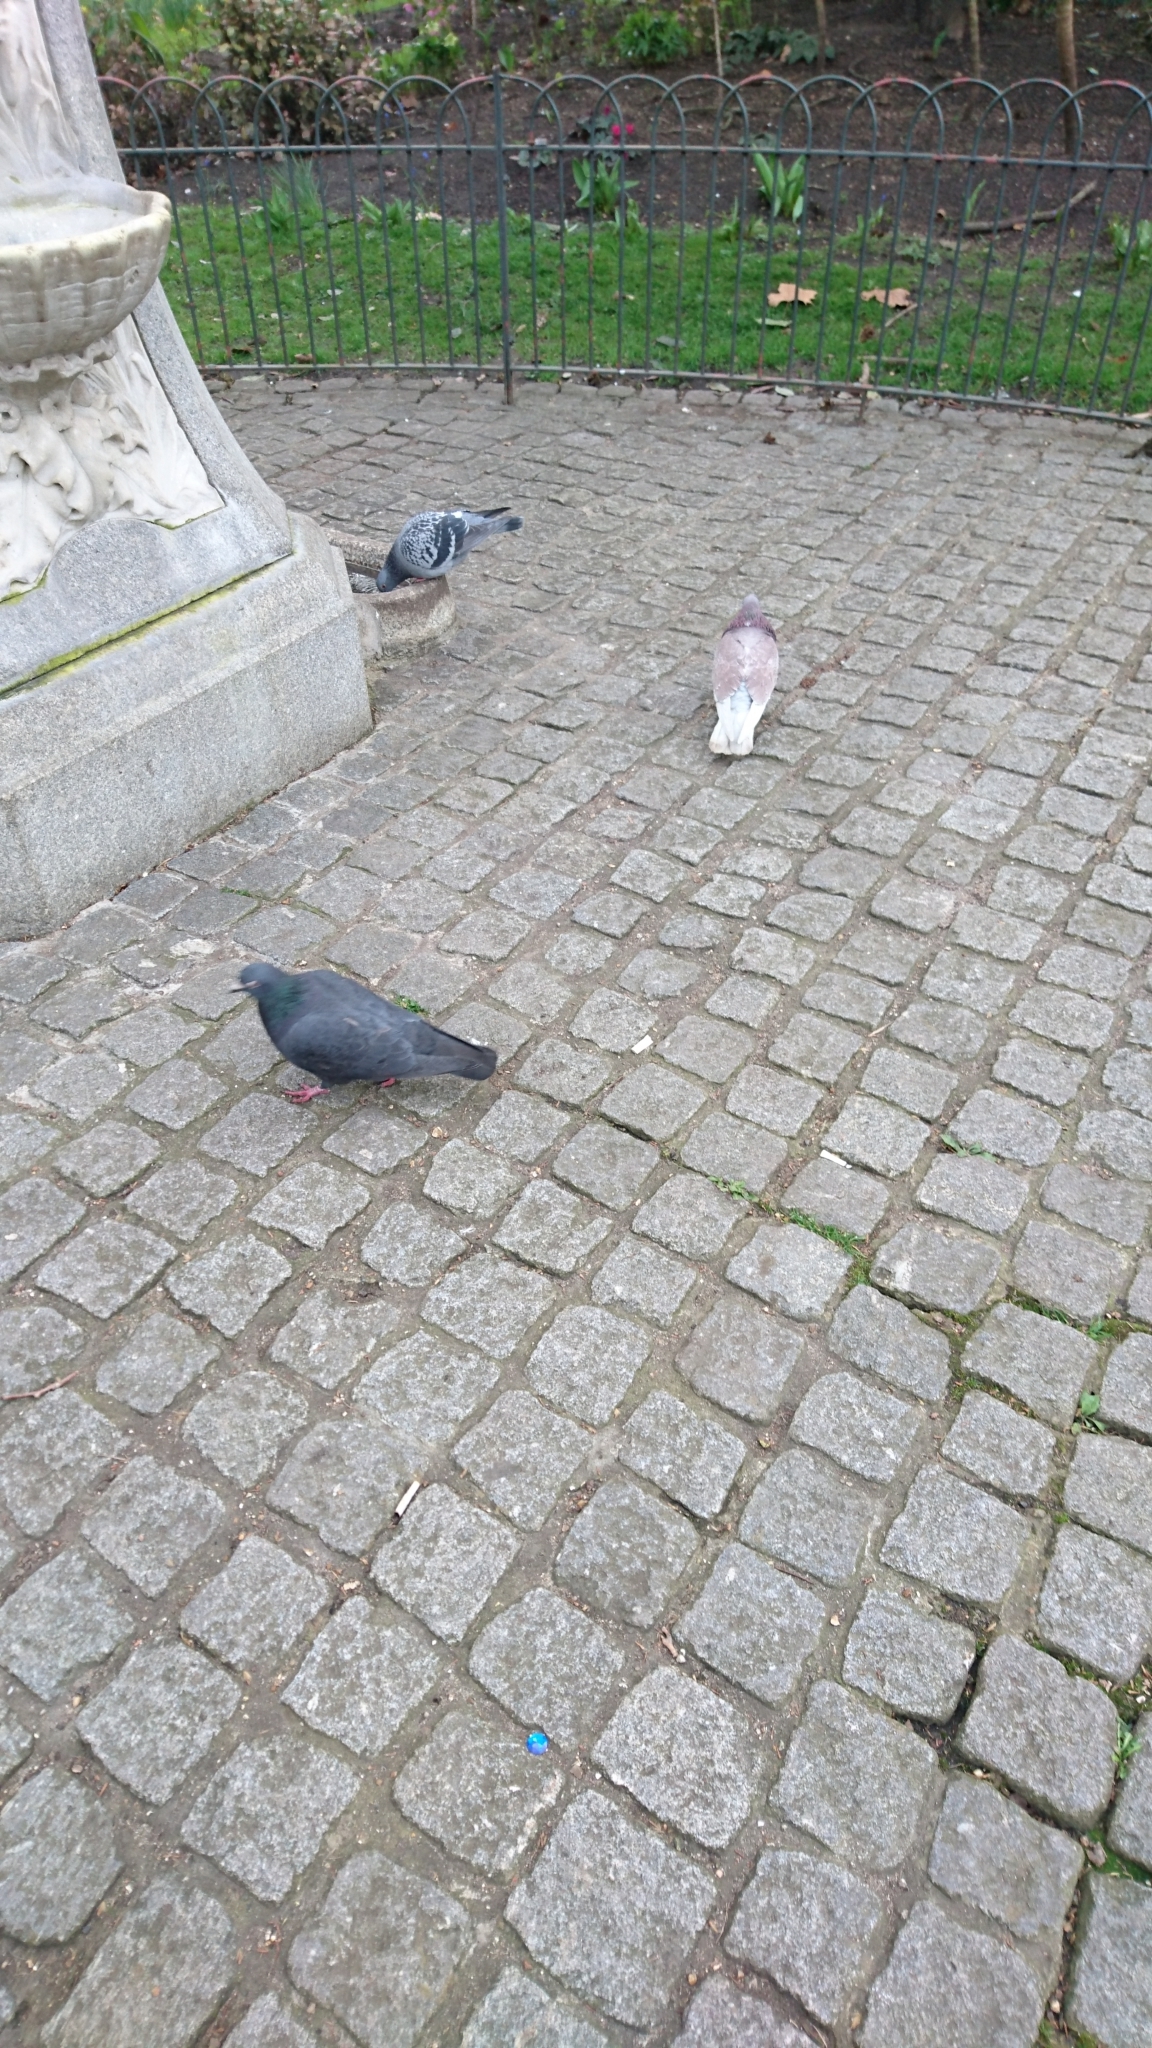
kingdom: Animalia
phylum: Chordata
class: Aves
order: Columbiformes
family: Columbidae
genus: Columba
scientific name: Columba livia
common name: Rock pigeon
